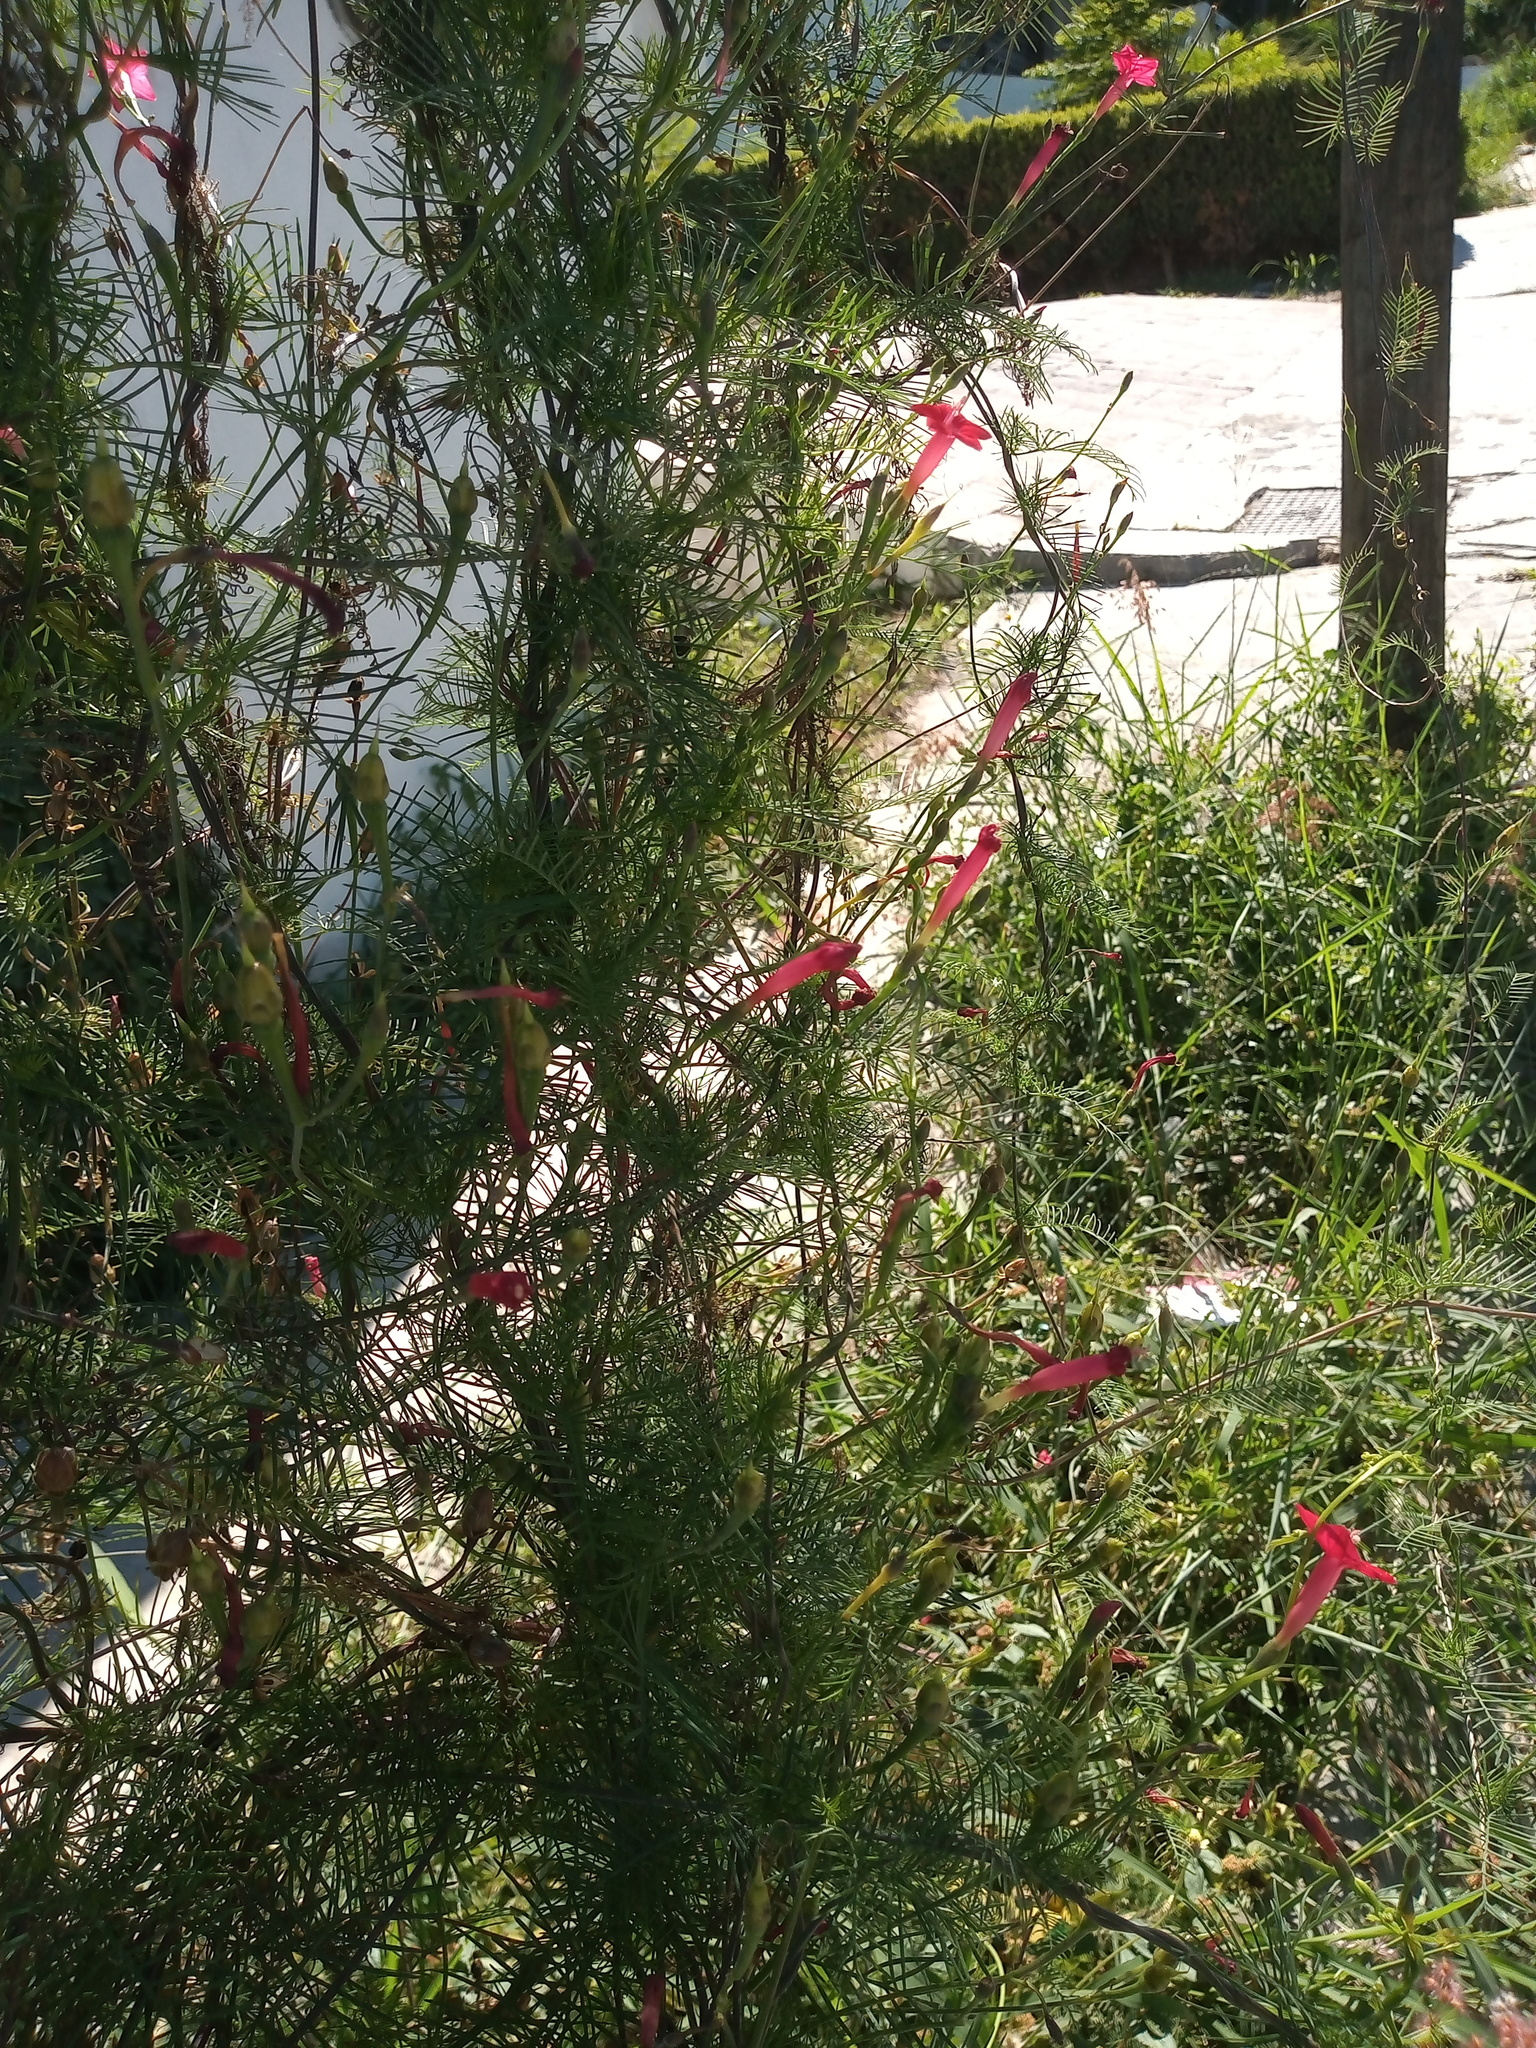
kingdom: Plantae
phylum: Tracheophyta
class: Magnoliopsida
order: Solanales
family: Convolvulaceae
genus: Ipomoea
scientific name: Ipomoea quamoclit
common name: Cypress vine
